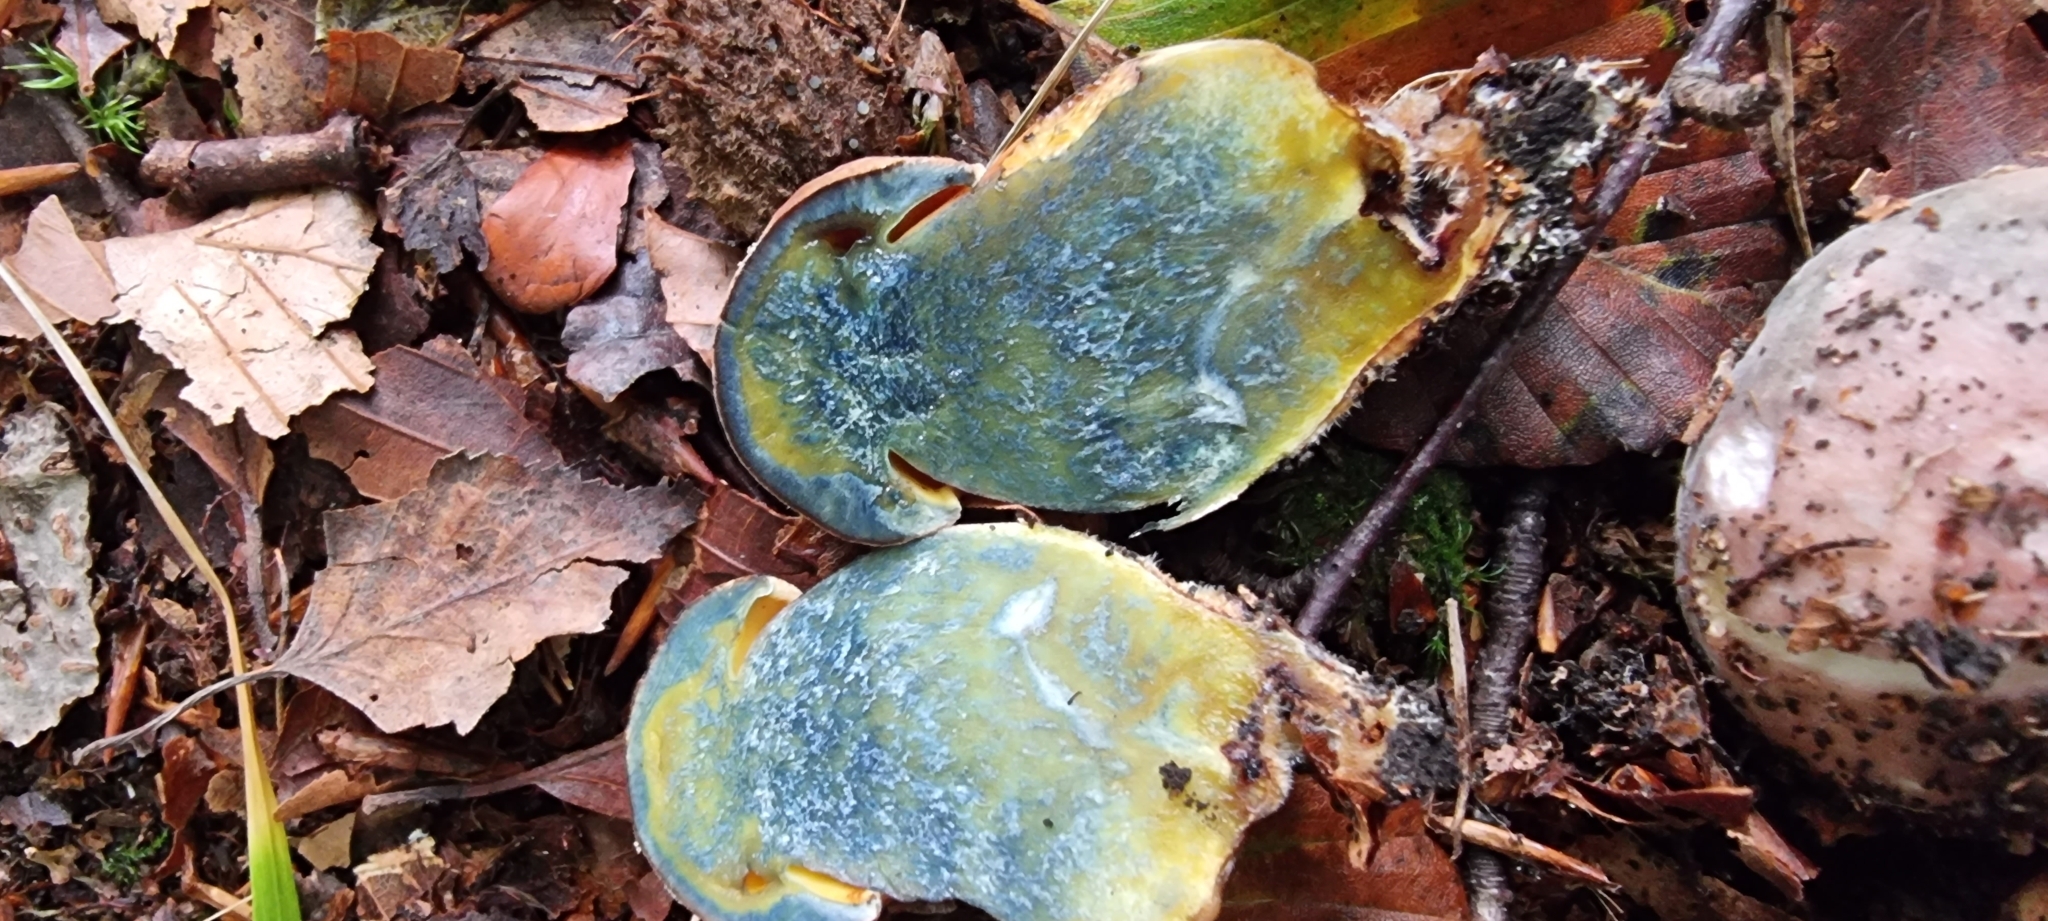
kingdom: Fungi
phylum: Basidiomycota
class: Agaricomycetes
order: Boletales
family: Boletaceae
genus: Neoboletus
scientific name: Neoboletus erythropus
